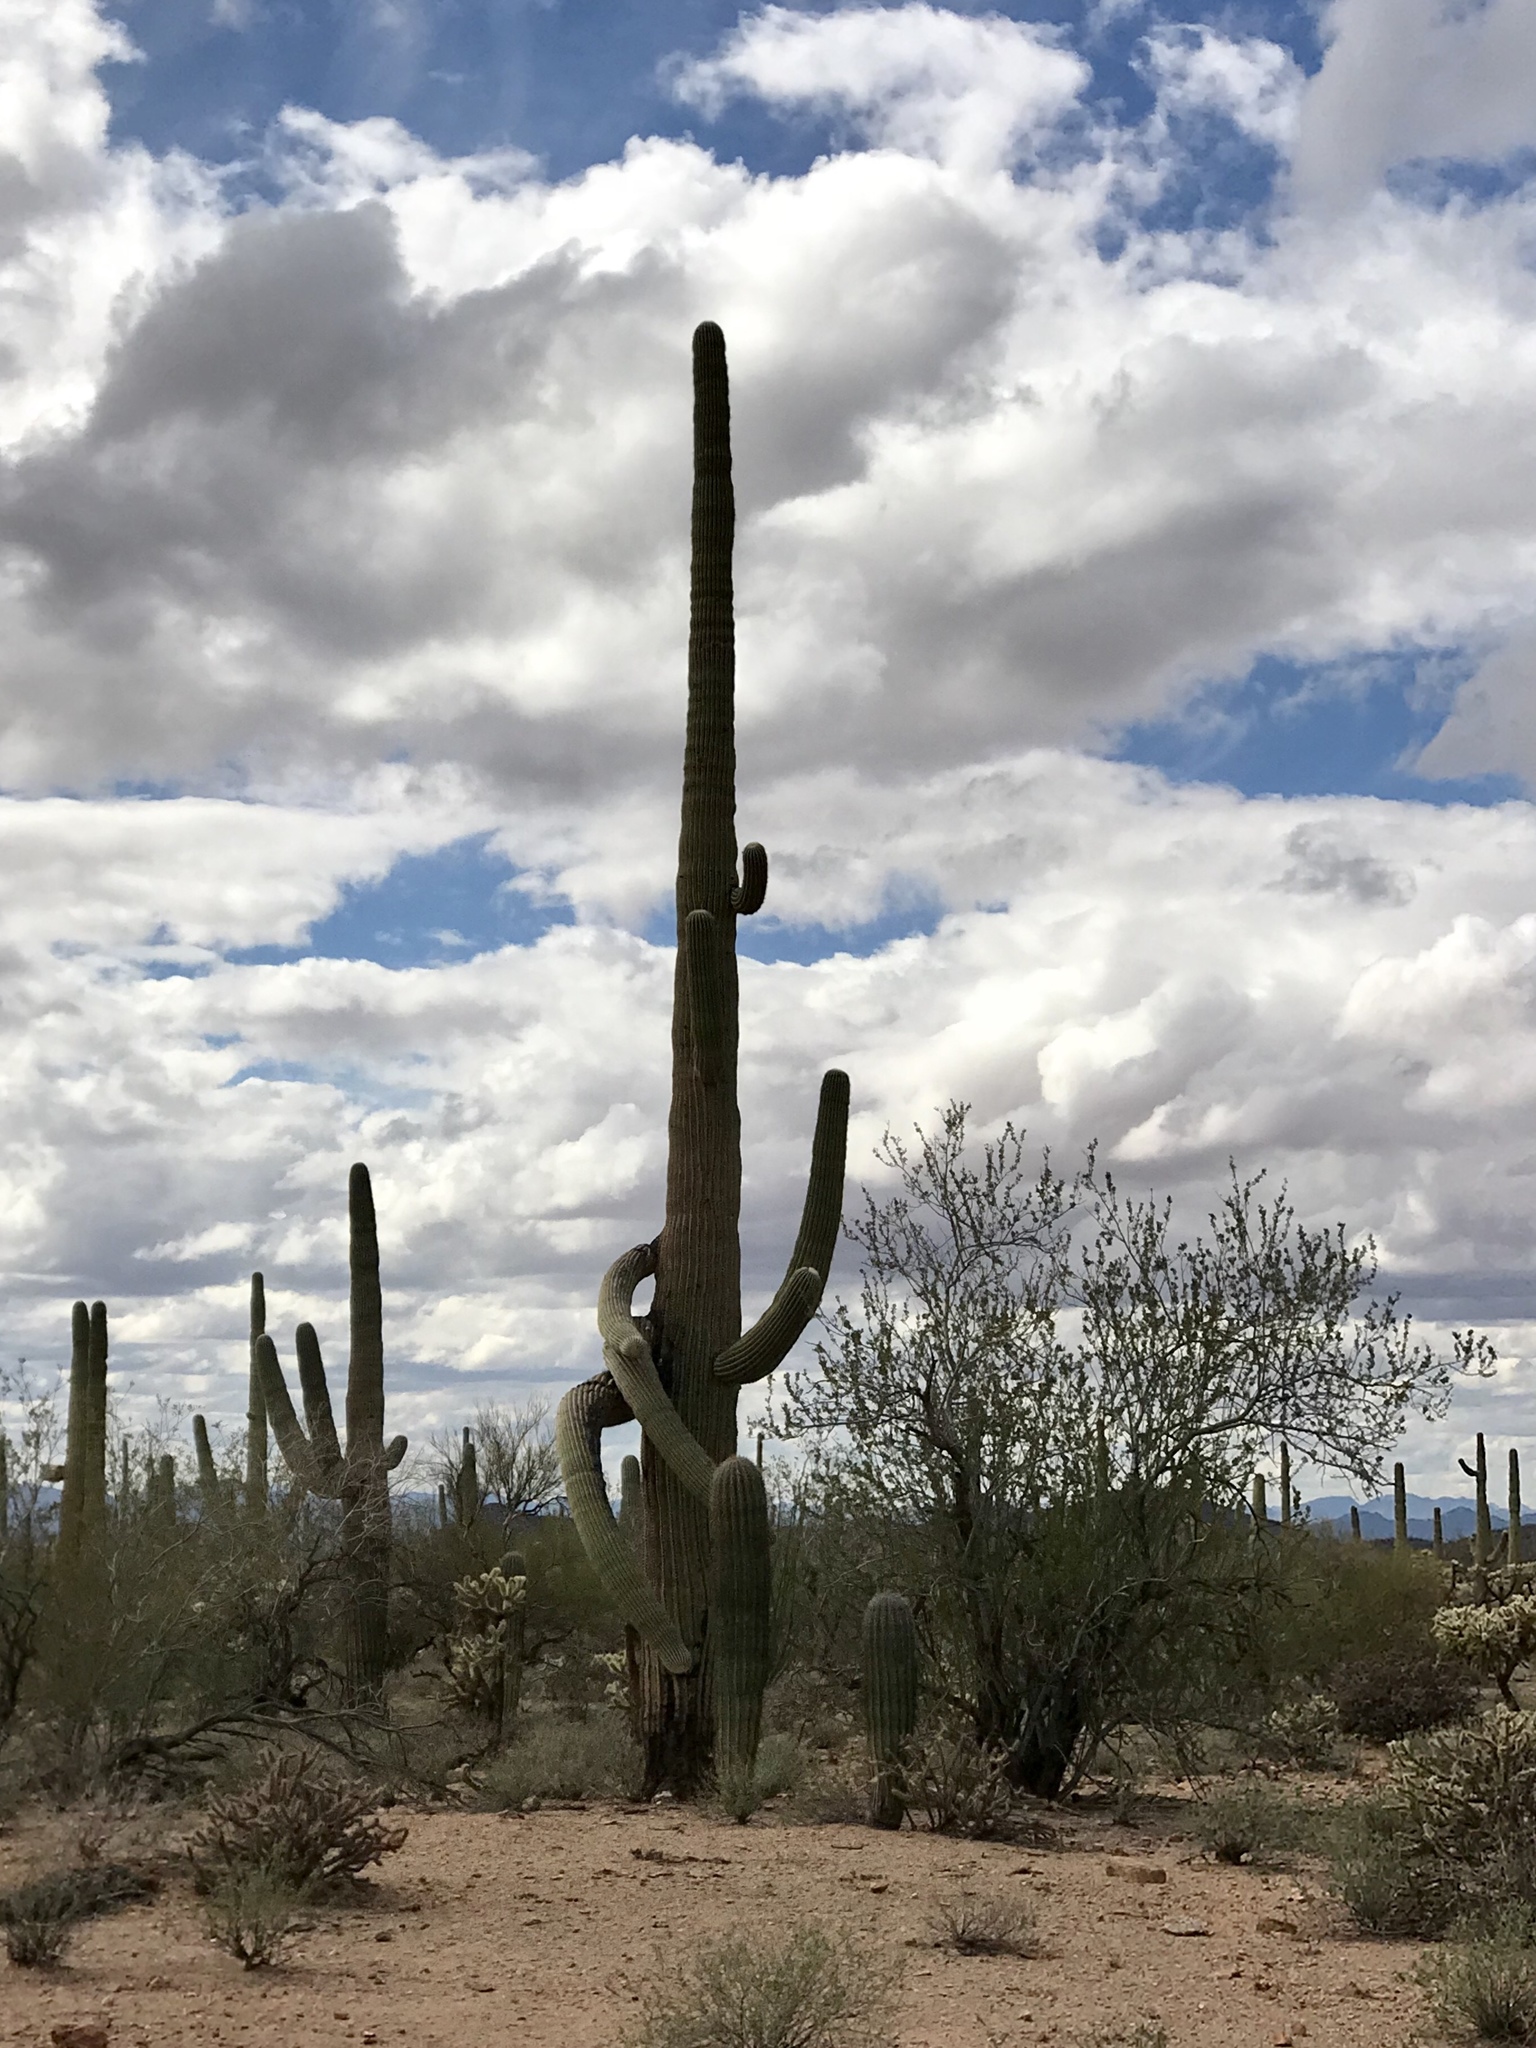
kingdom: Plantae
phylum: Tracheophyta
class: Magnoliopsida
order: Caryophyllales
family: Cactaceae
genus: Carnegiea
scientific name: Carnegiea gigantea
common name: Saguaro
